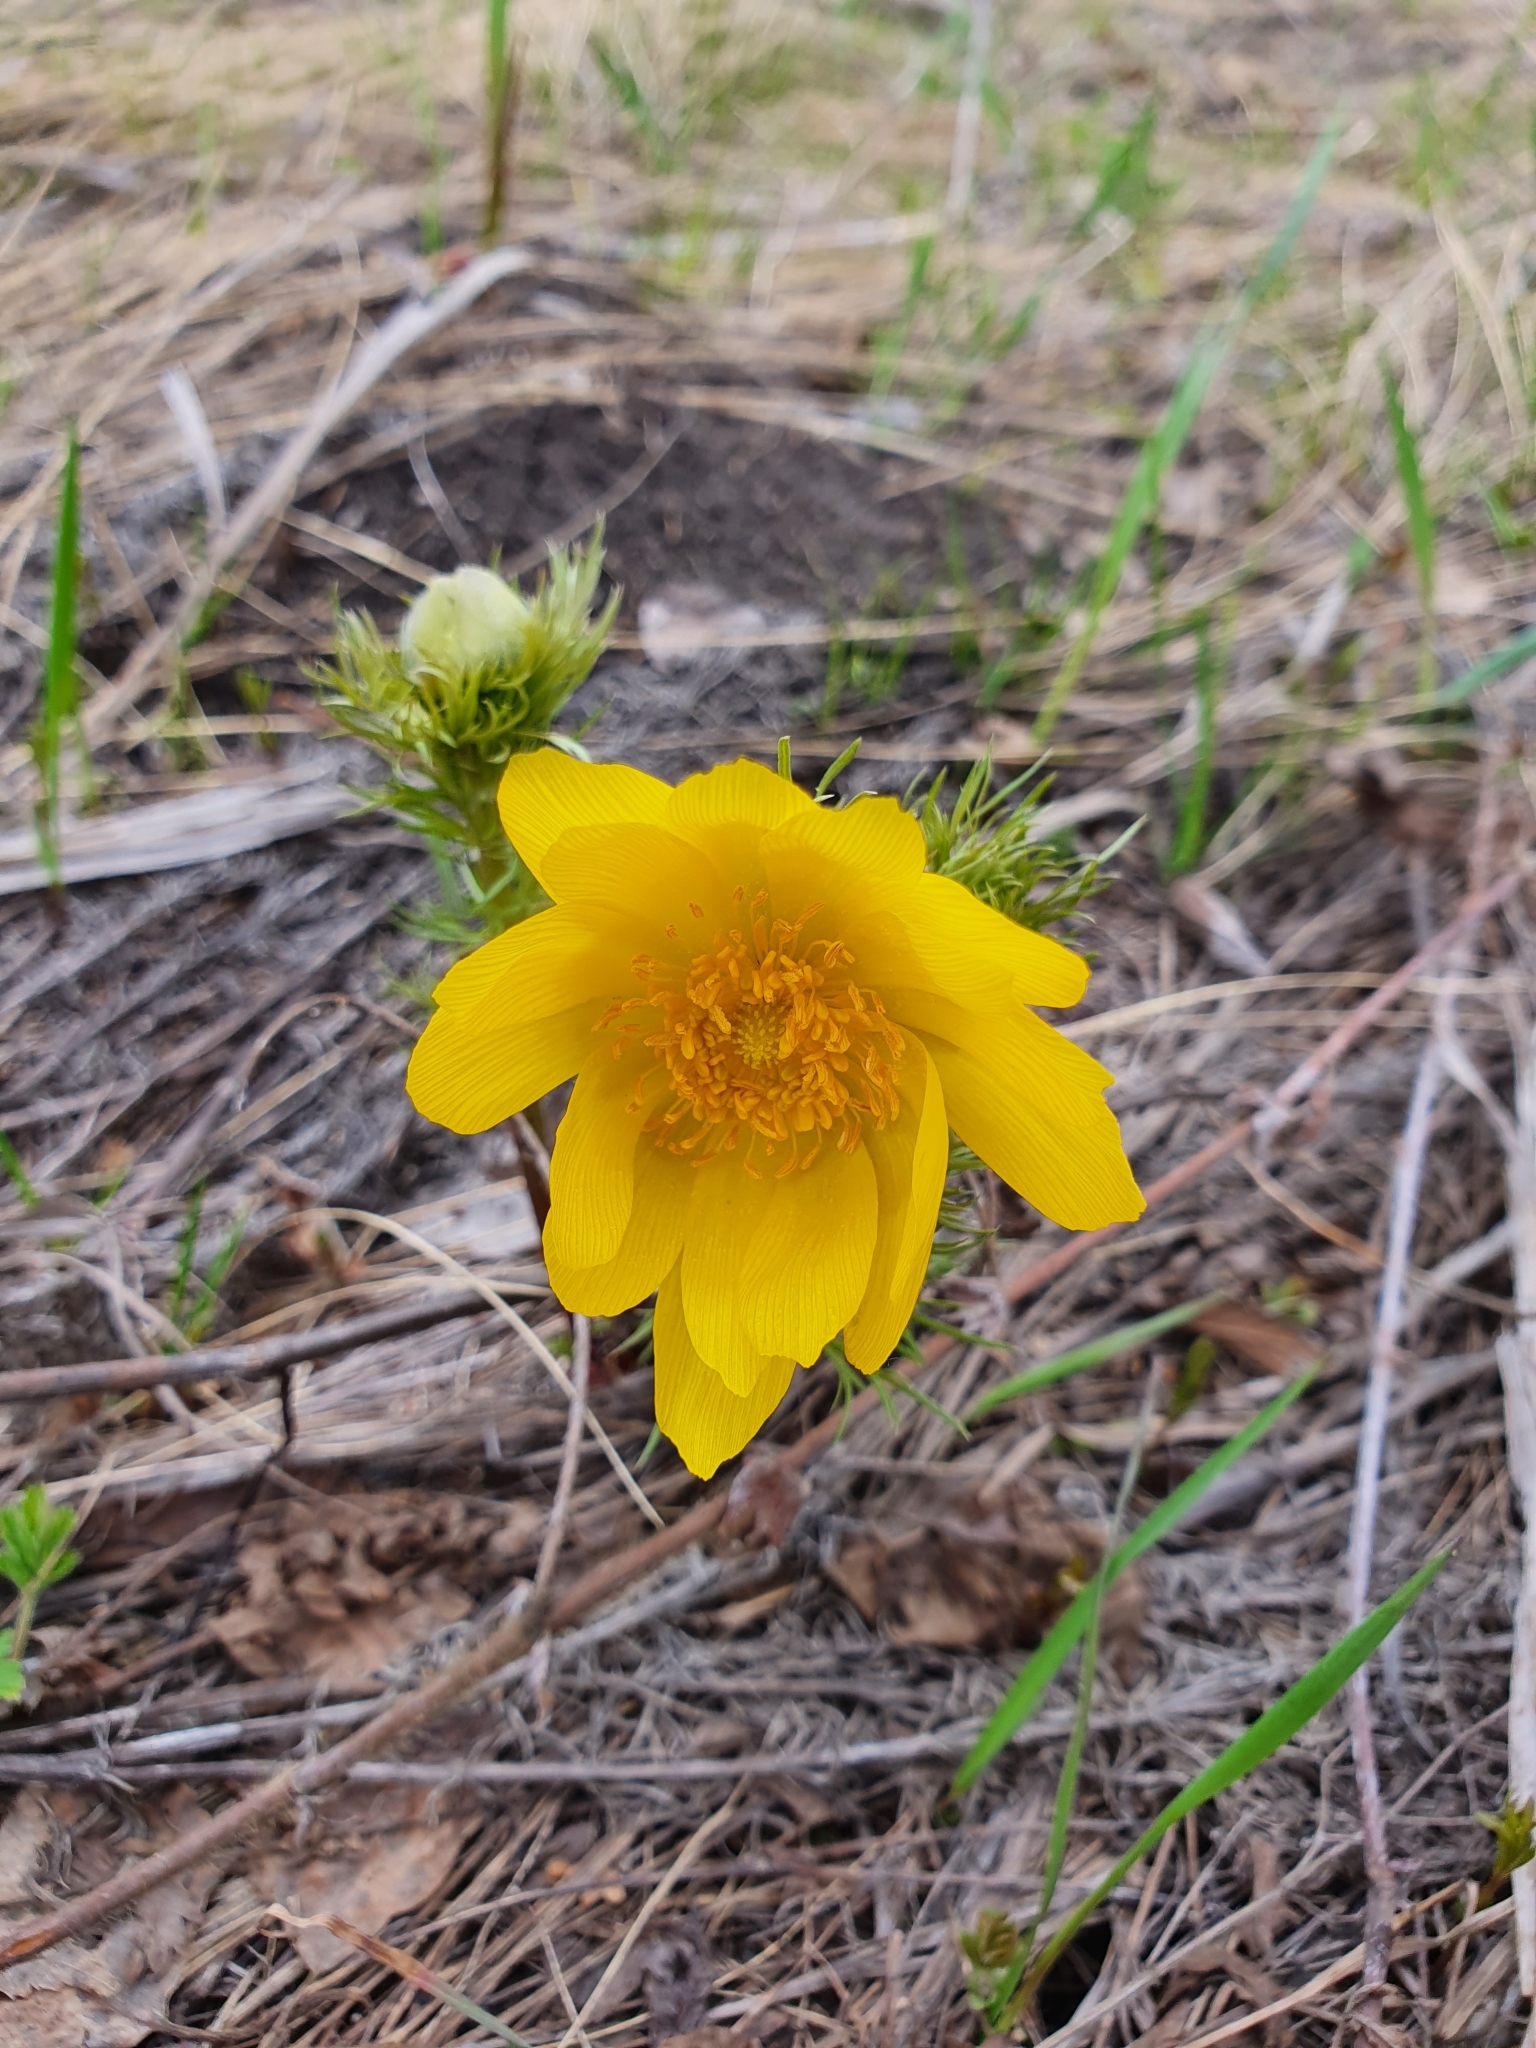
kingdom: Plantae
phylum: Tracheophyta
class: Magnoliopsida
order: Ranunculales
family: Ranunculaceae
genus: Adonis
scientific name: Adonis vernalis
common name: Yellow pheasants-eye
